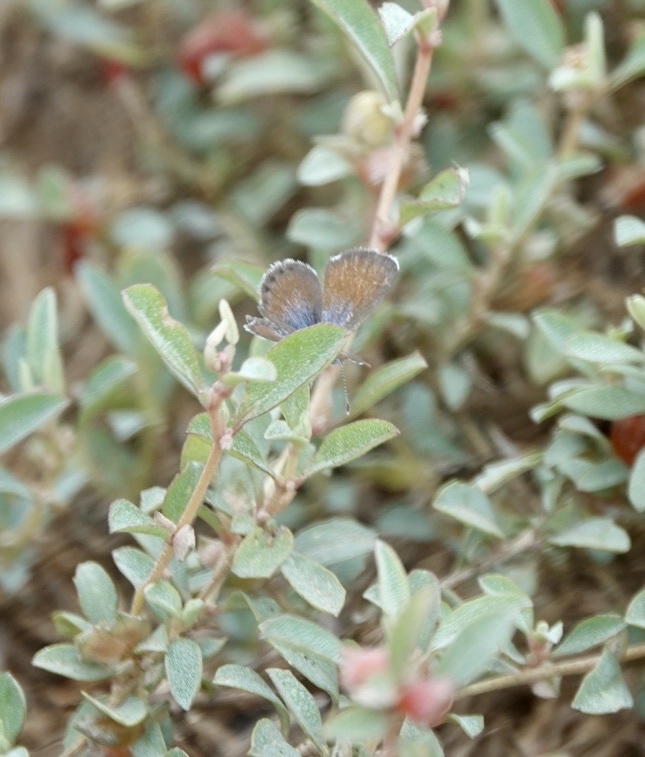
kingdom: Animalia
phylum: Arthropoda
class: Insecta
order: Lepidoptera
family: Lycaenidae
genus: Brephidium
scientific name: Brephidium exilis
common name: Pygmy blue
